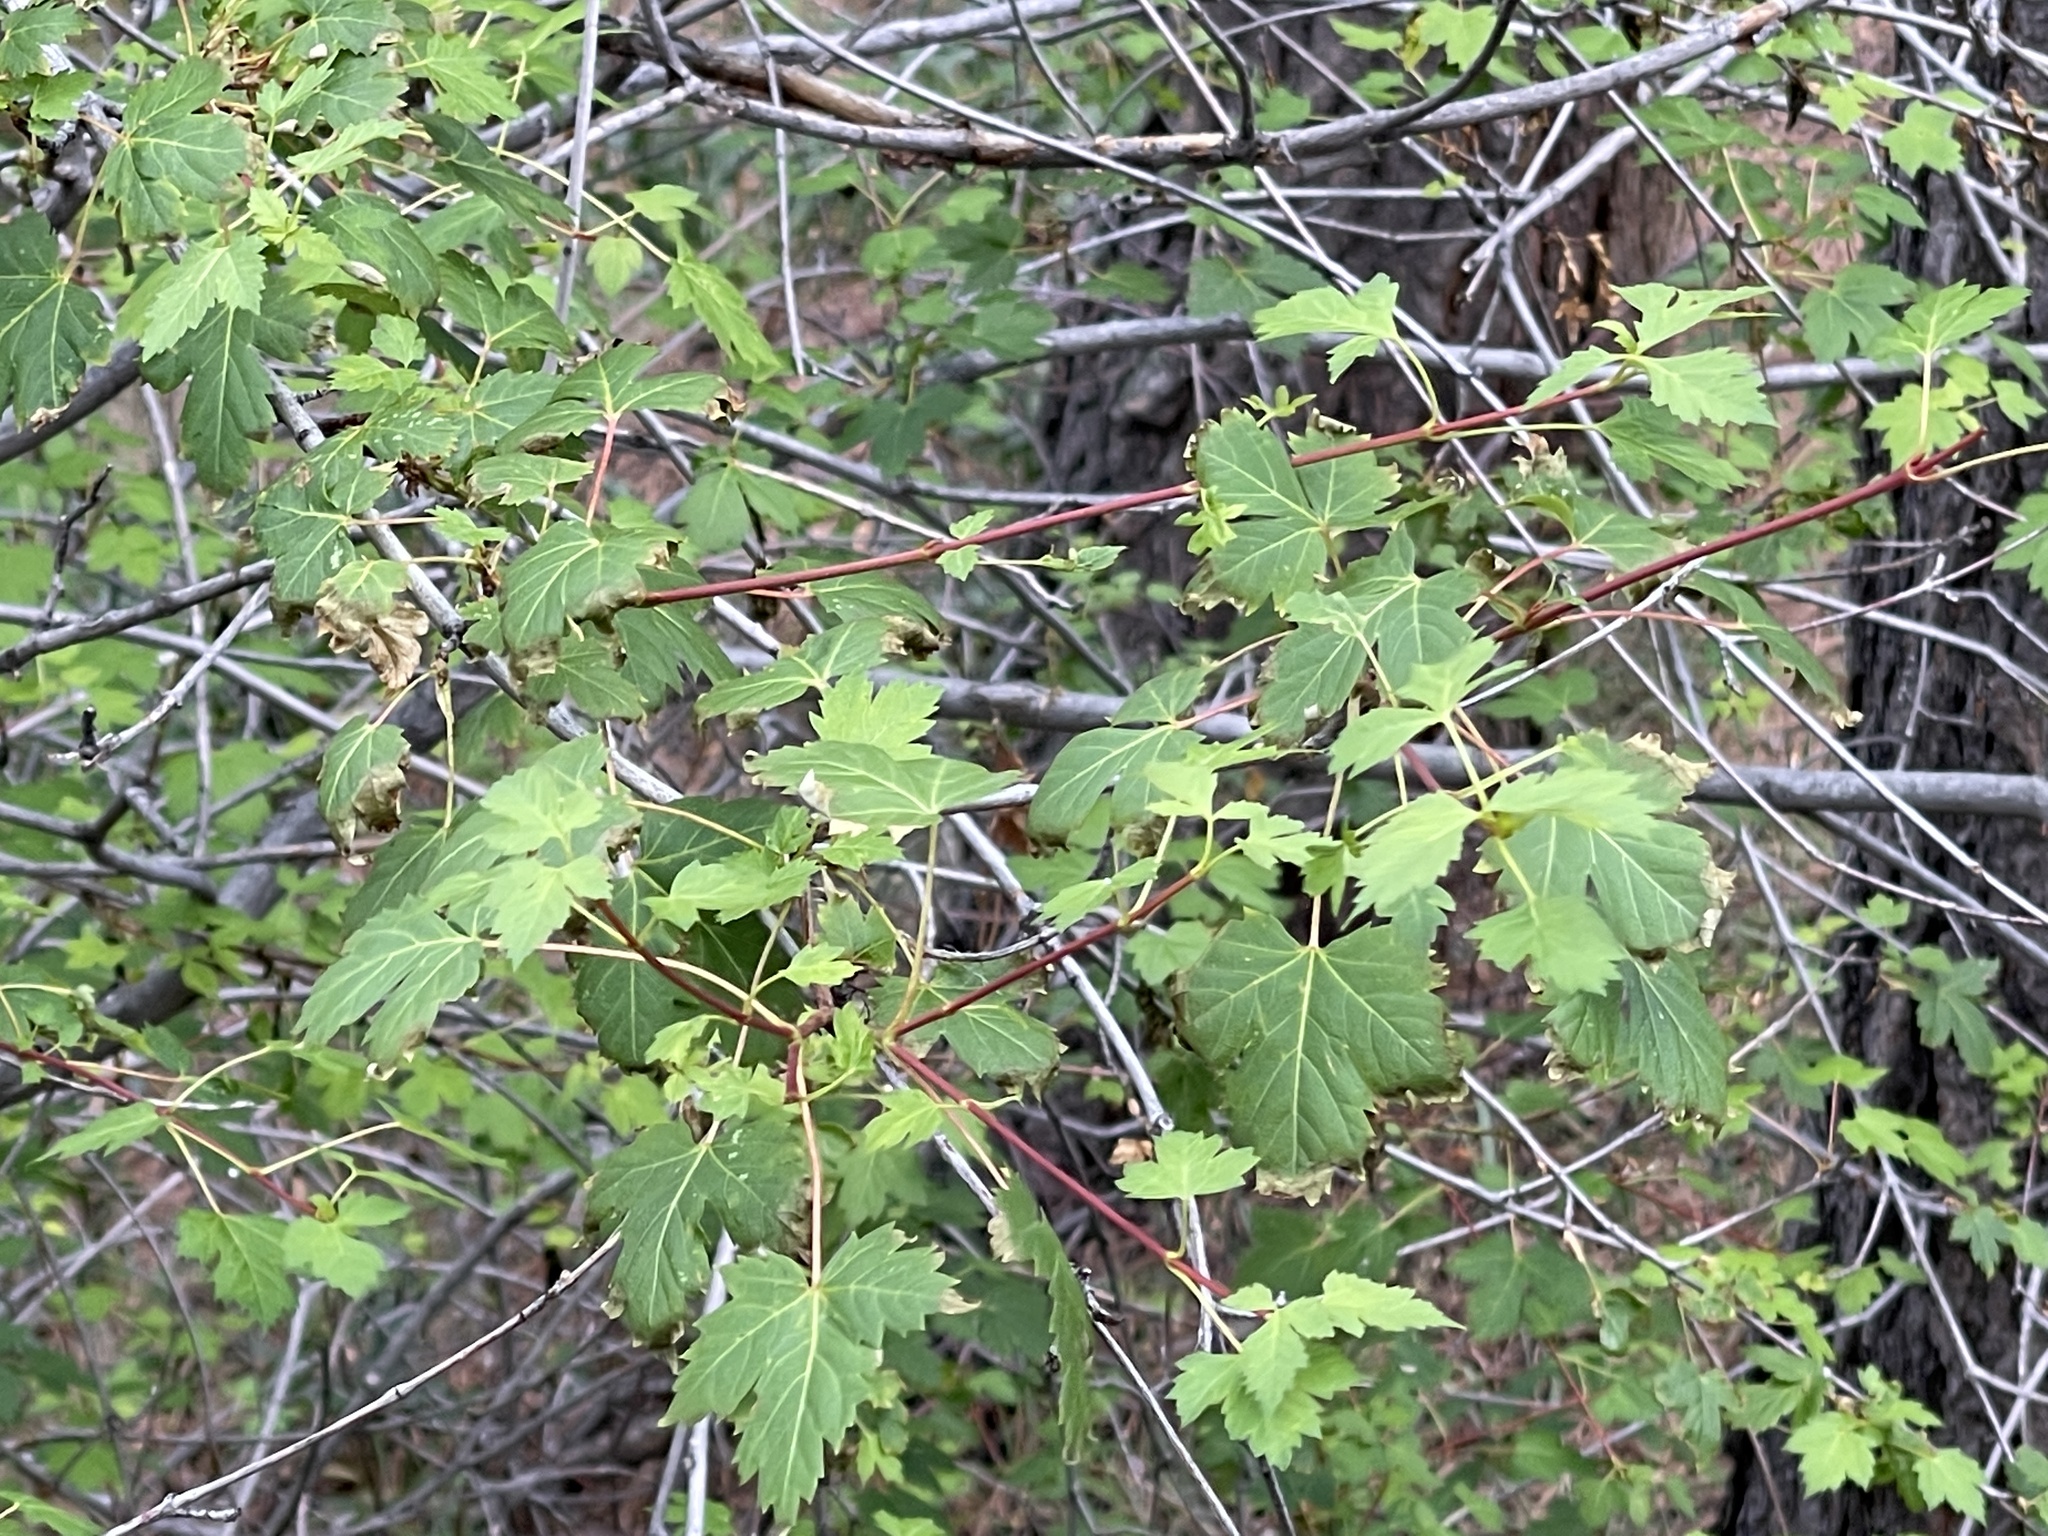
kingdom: Plantae
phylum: Tracheophyta
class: Magnoliopsida
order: Sapindales
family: Sapindaceae
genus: Acer
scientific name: Acer glabrum
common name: Rocky mountain maple
